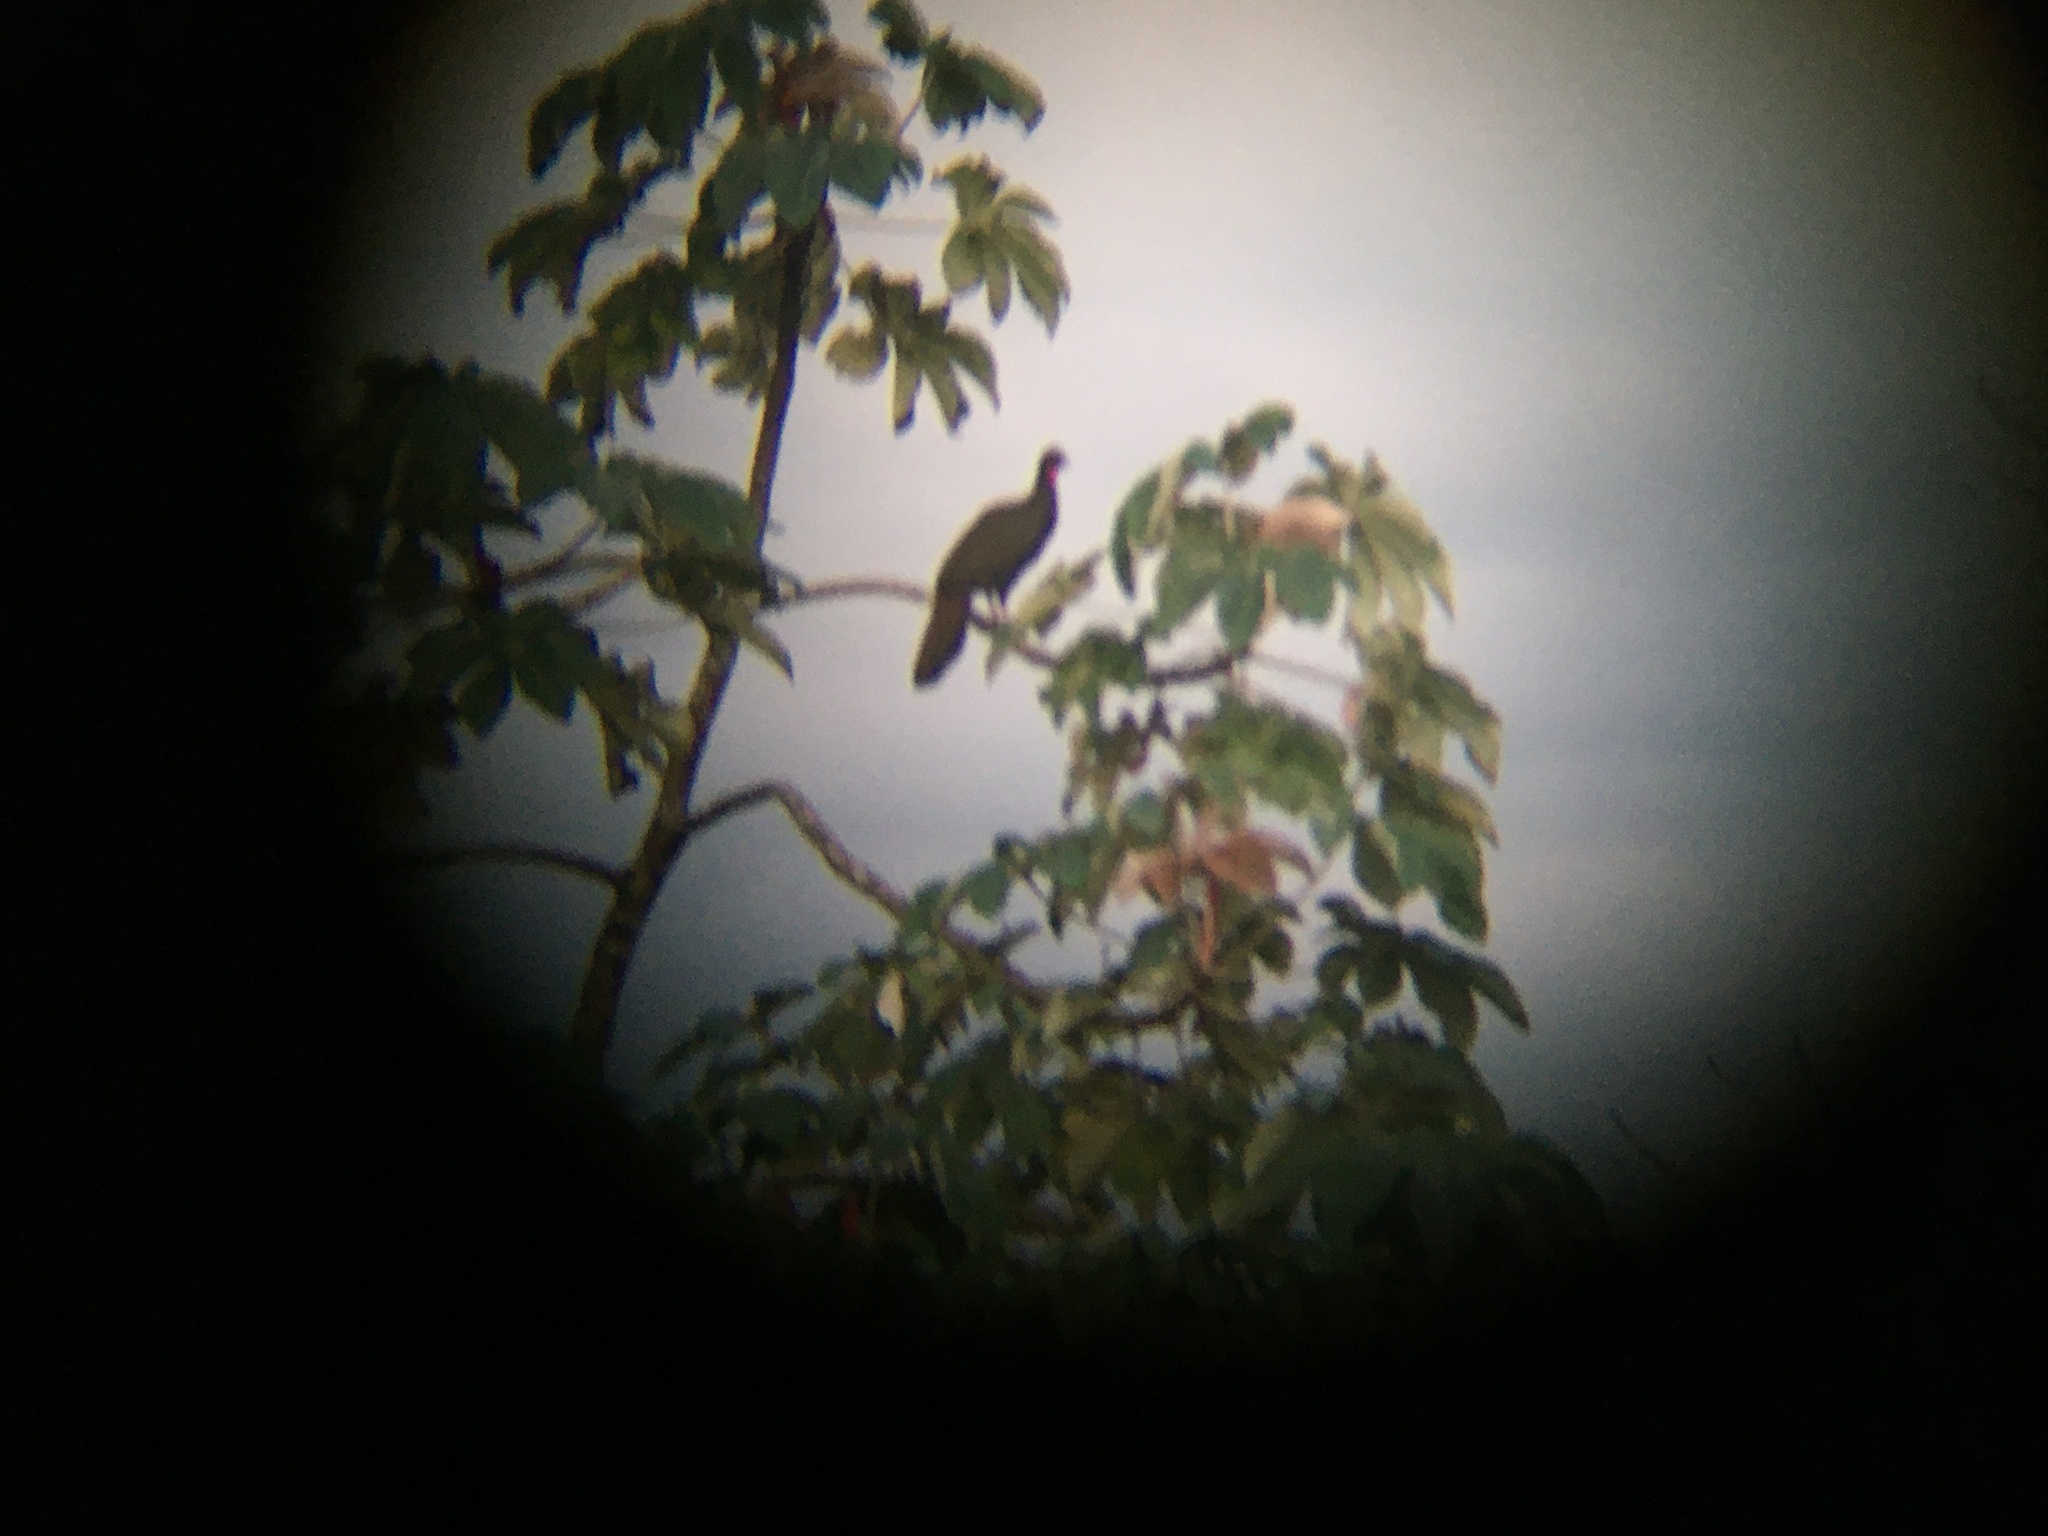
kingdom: Animalia
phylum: Chordata
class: Aves
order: Galliformes
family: Cracidae
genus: Penelope
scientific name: Penelope purpurascens
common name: Crested guan
